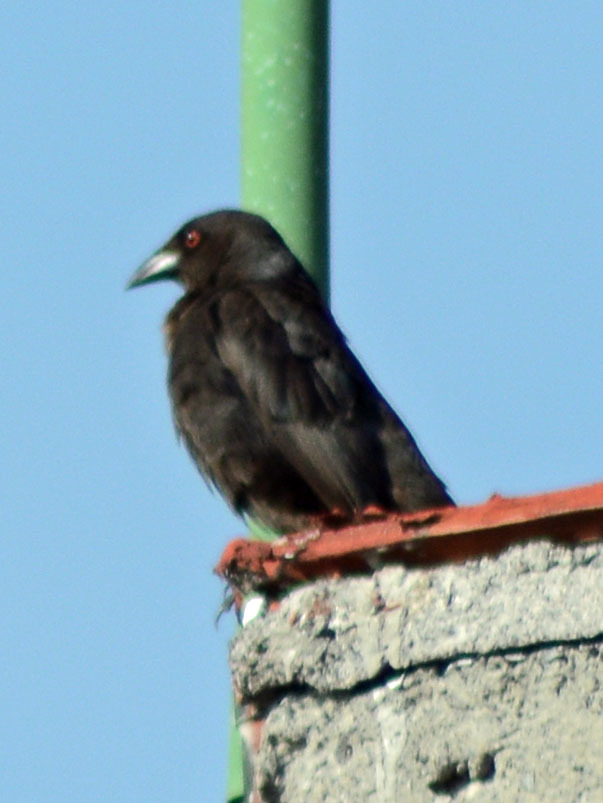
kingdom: Animalia
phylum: Chordata
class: Aves
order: Passeriformes
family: Icteridae
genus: Molothrus
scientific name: Molothrus aeneus
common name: Bronzed cowbird
